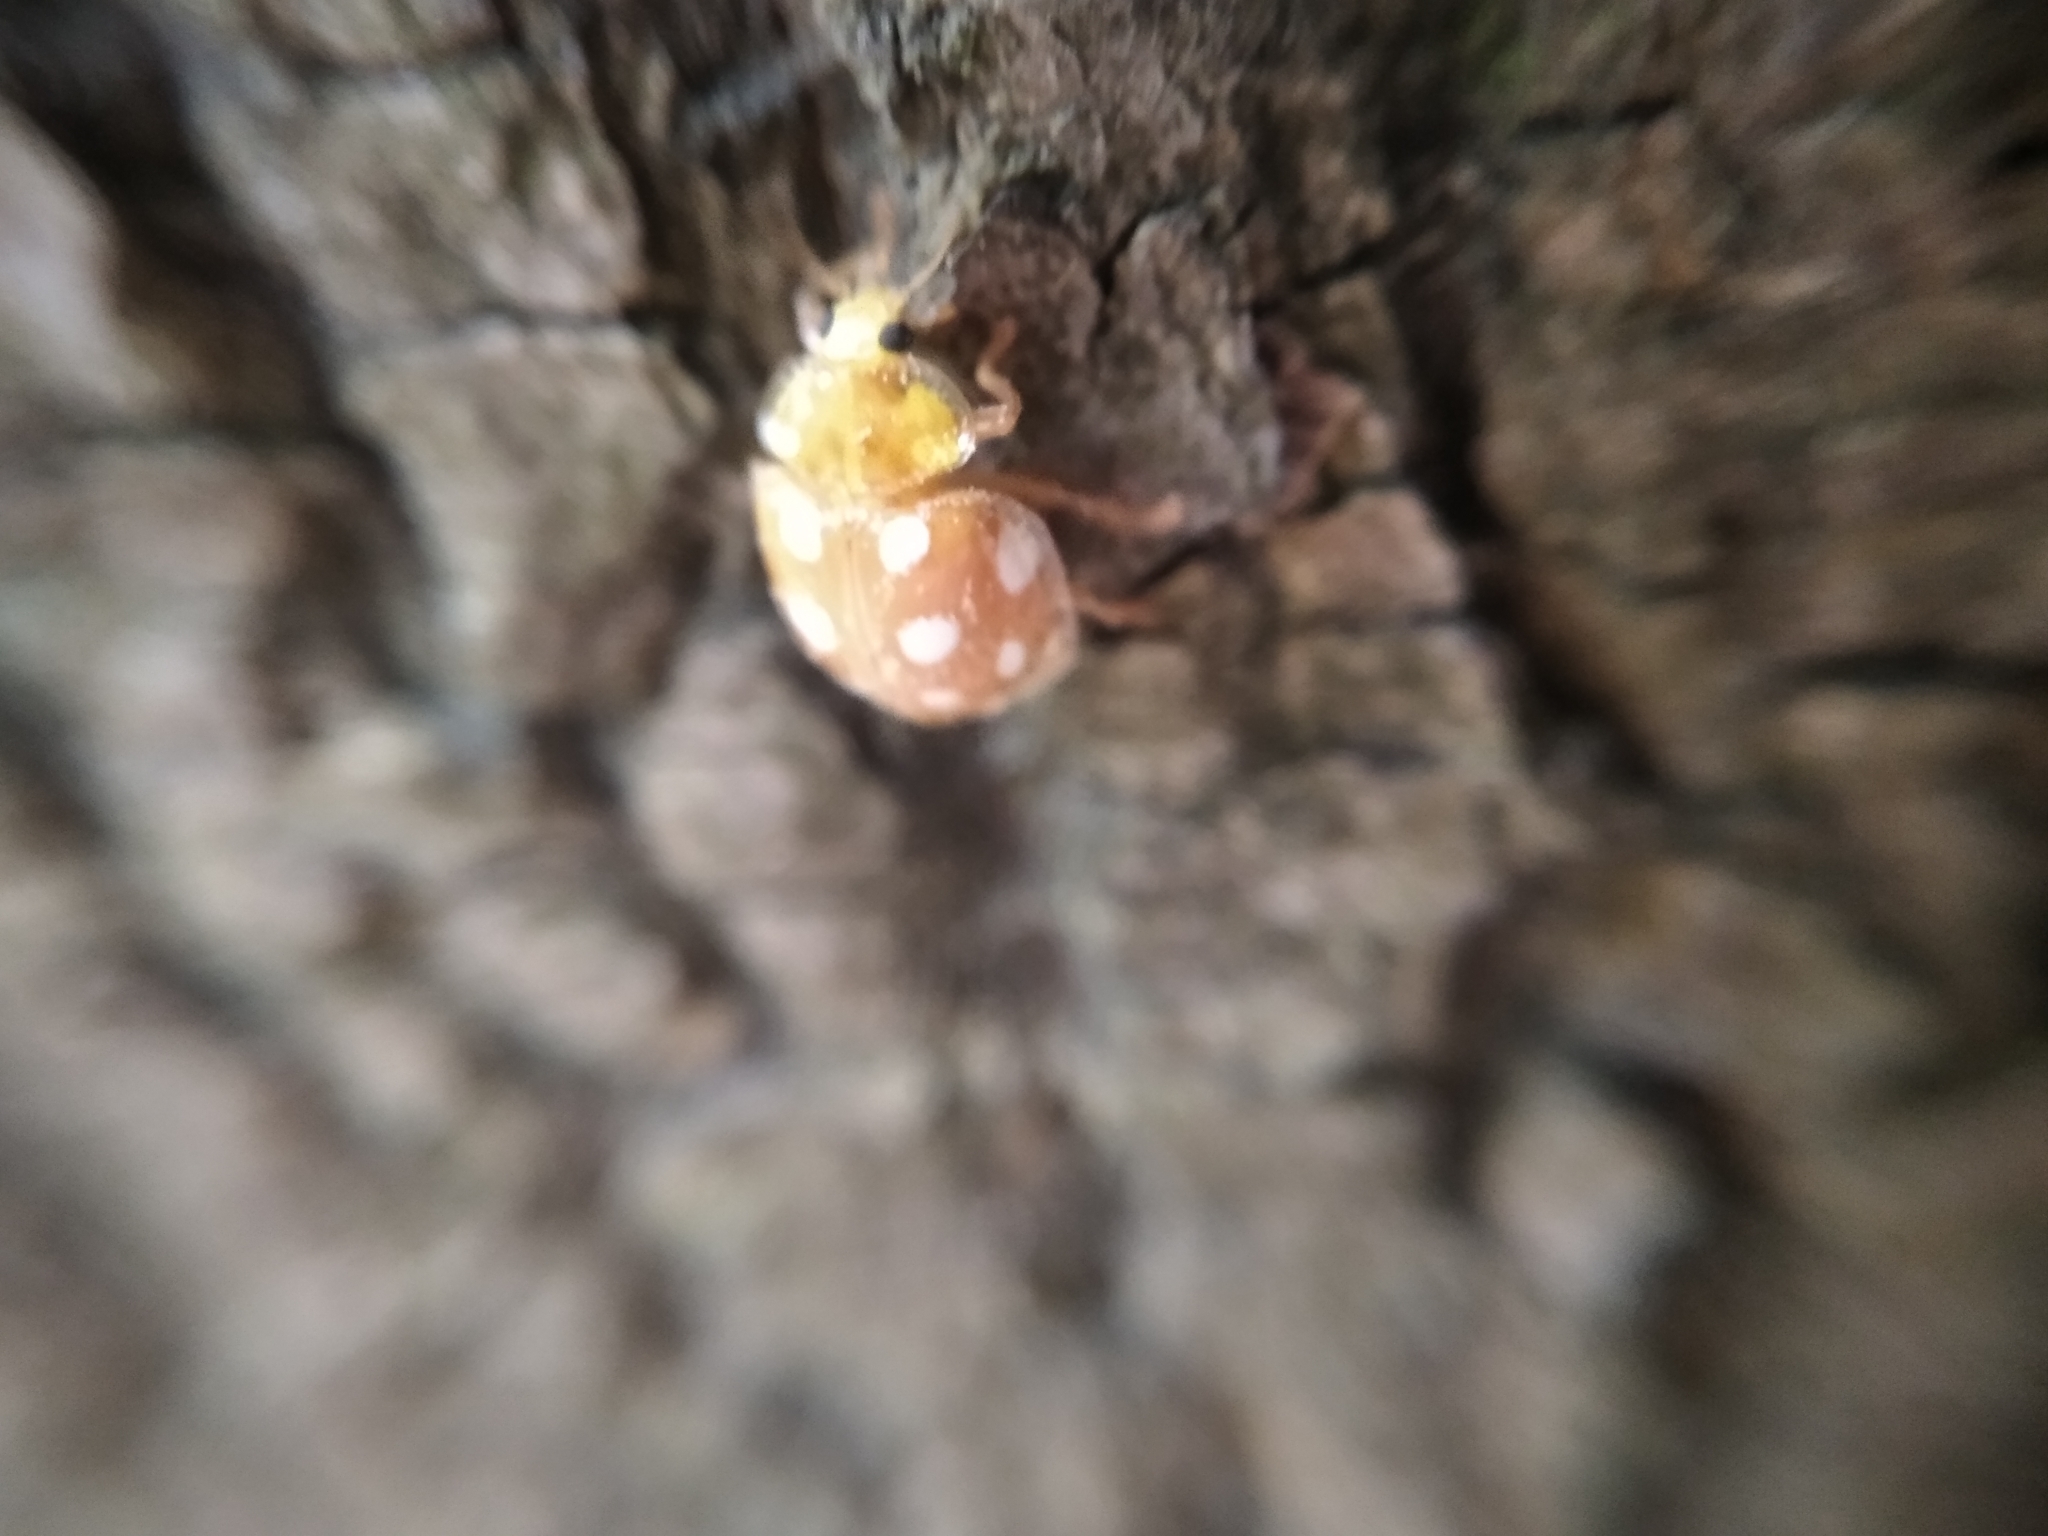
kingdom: Animalia
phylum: Arthropoda
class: Insecta
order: Coleoptera
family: Coccinellidae
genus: Halyzia
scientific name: Halyzia sedecimguttata
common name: Orange ladybird
